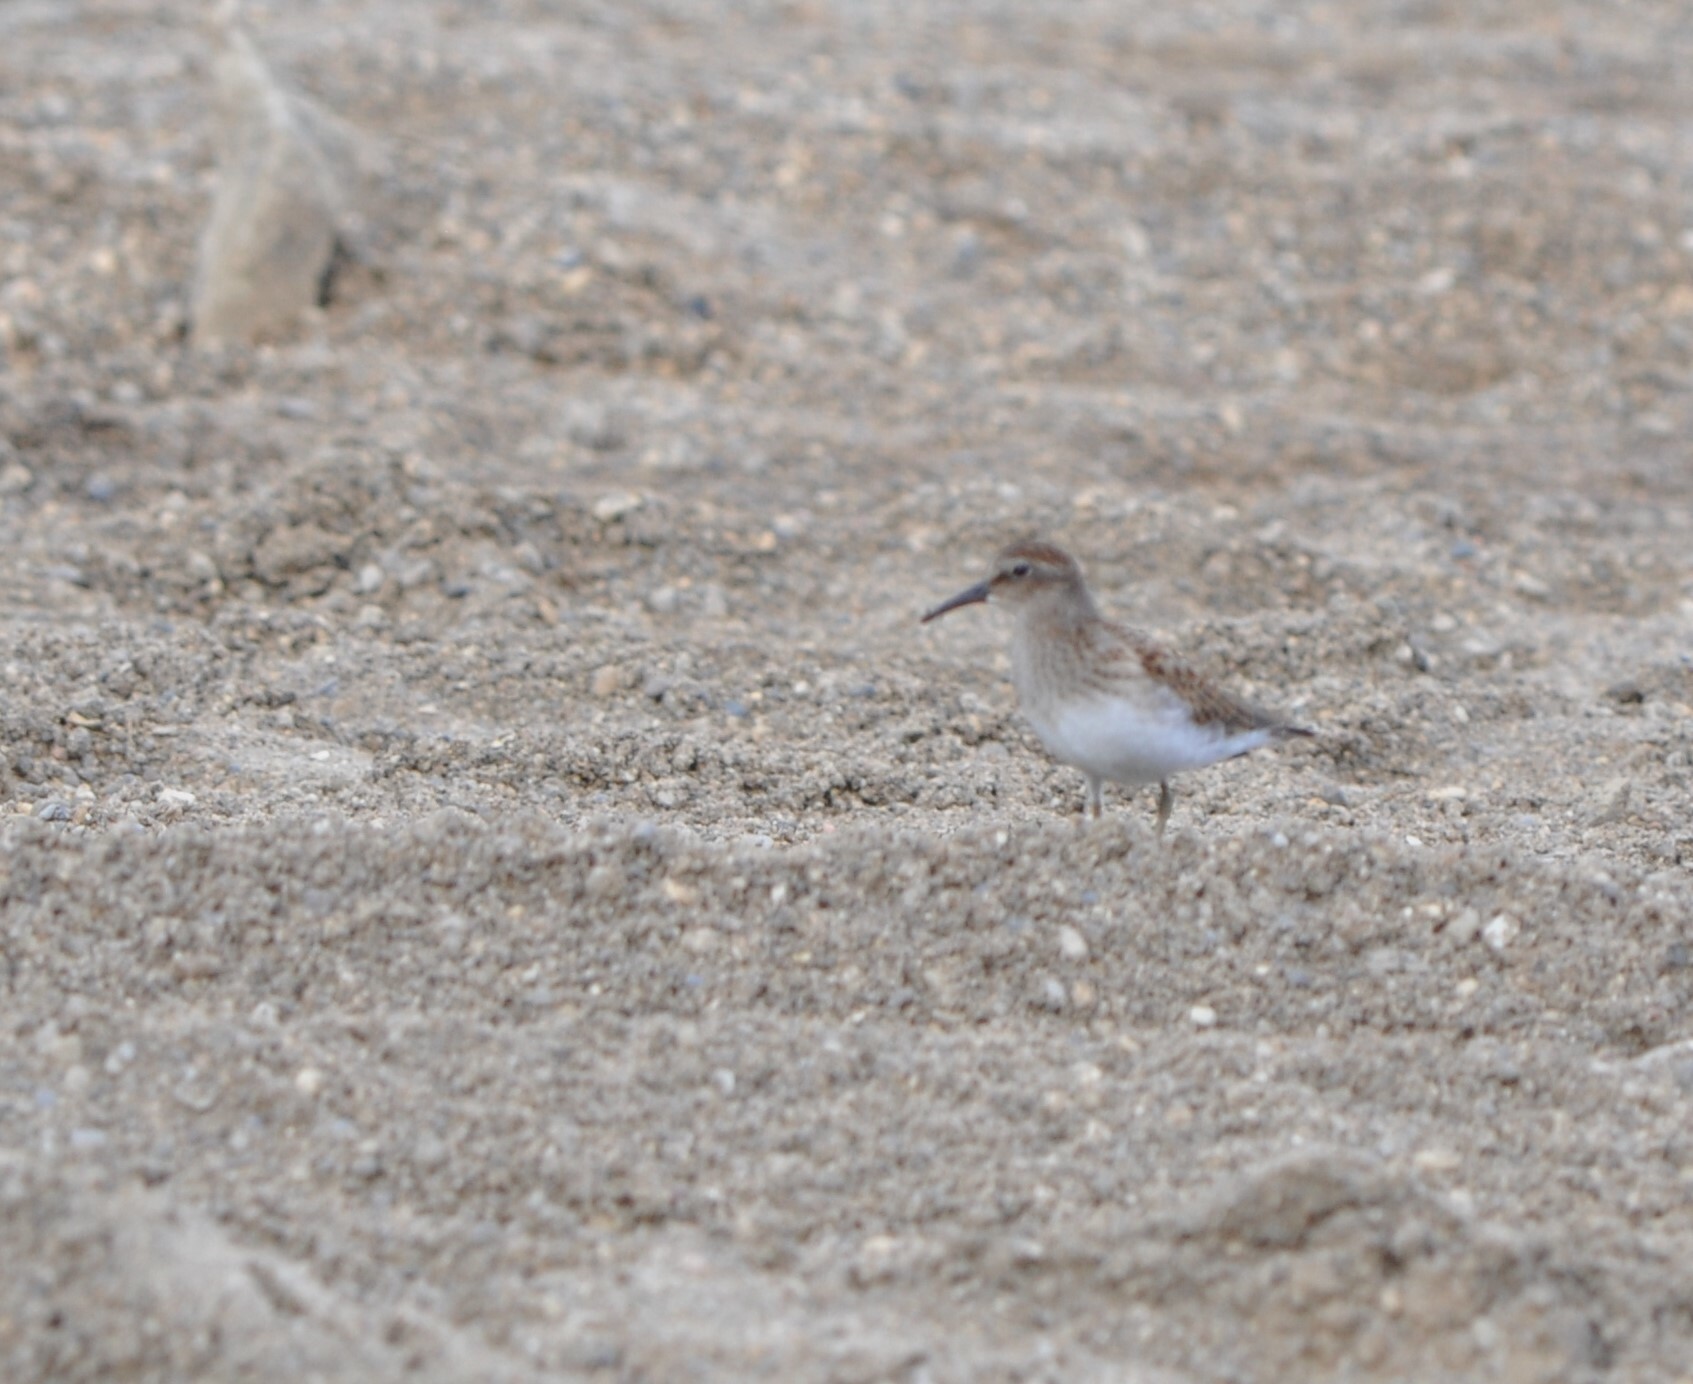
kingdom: Animalia
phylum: Chordata
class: Aves
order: Charadriiformes
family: Scolopacidae
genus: Calidris
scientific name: Calidris minutilla
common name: Least sandpiper
